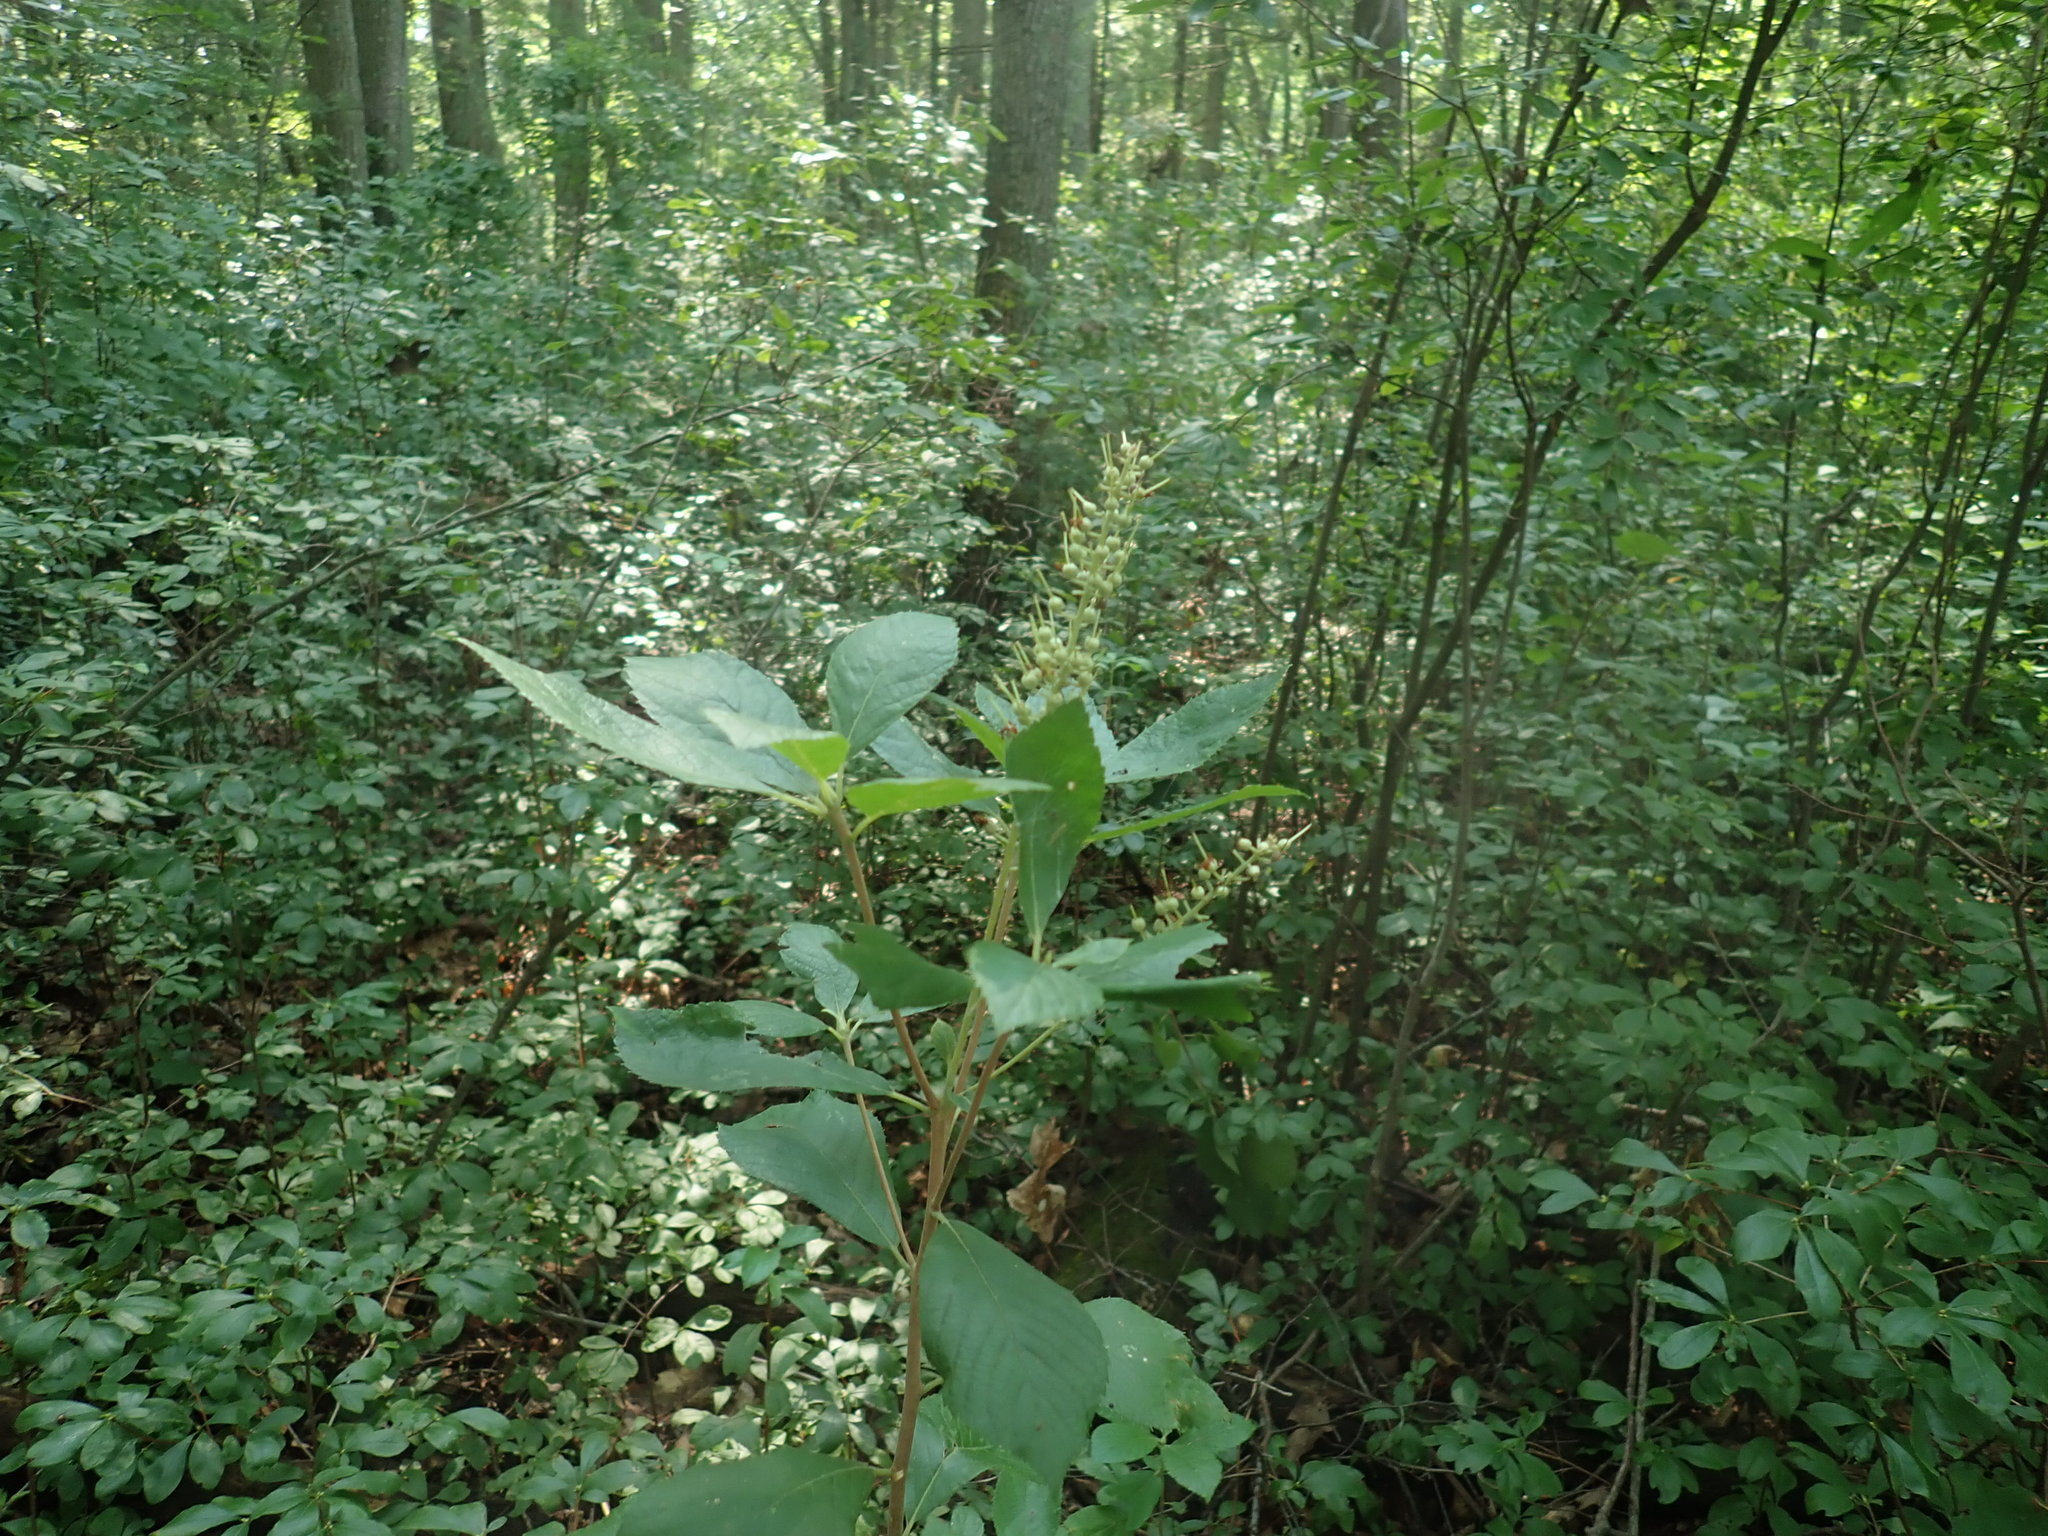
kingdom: Plantae
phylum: Tracheophyta
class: Magnoliopsida
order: Ericales
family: Clethraceae
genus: Clethra
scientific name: Clethra alnifolia
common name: Sweet pepperbush
